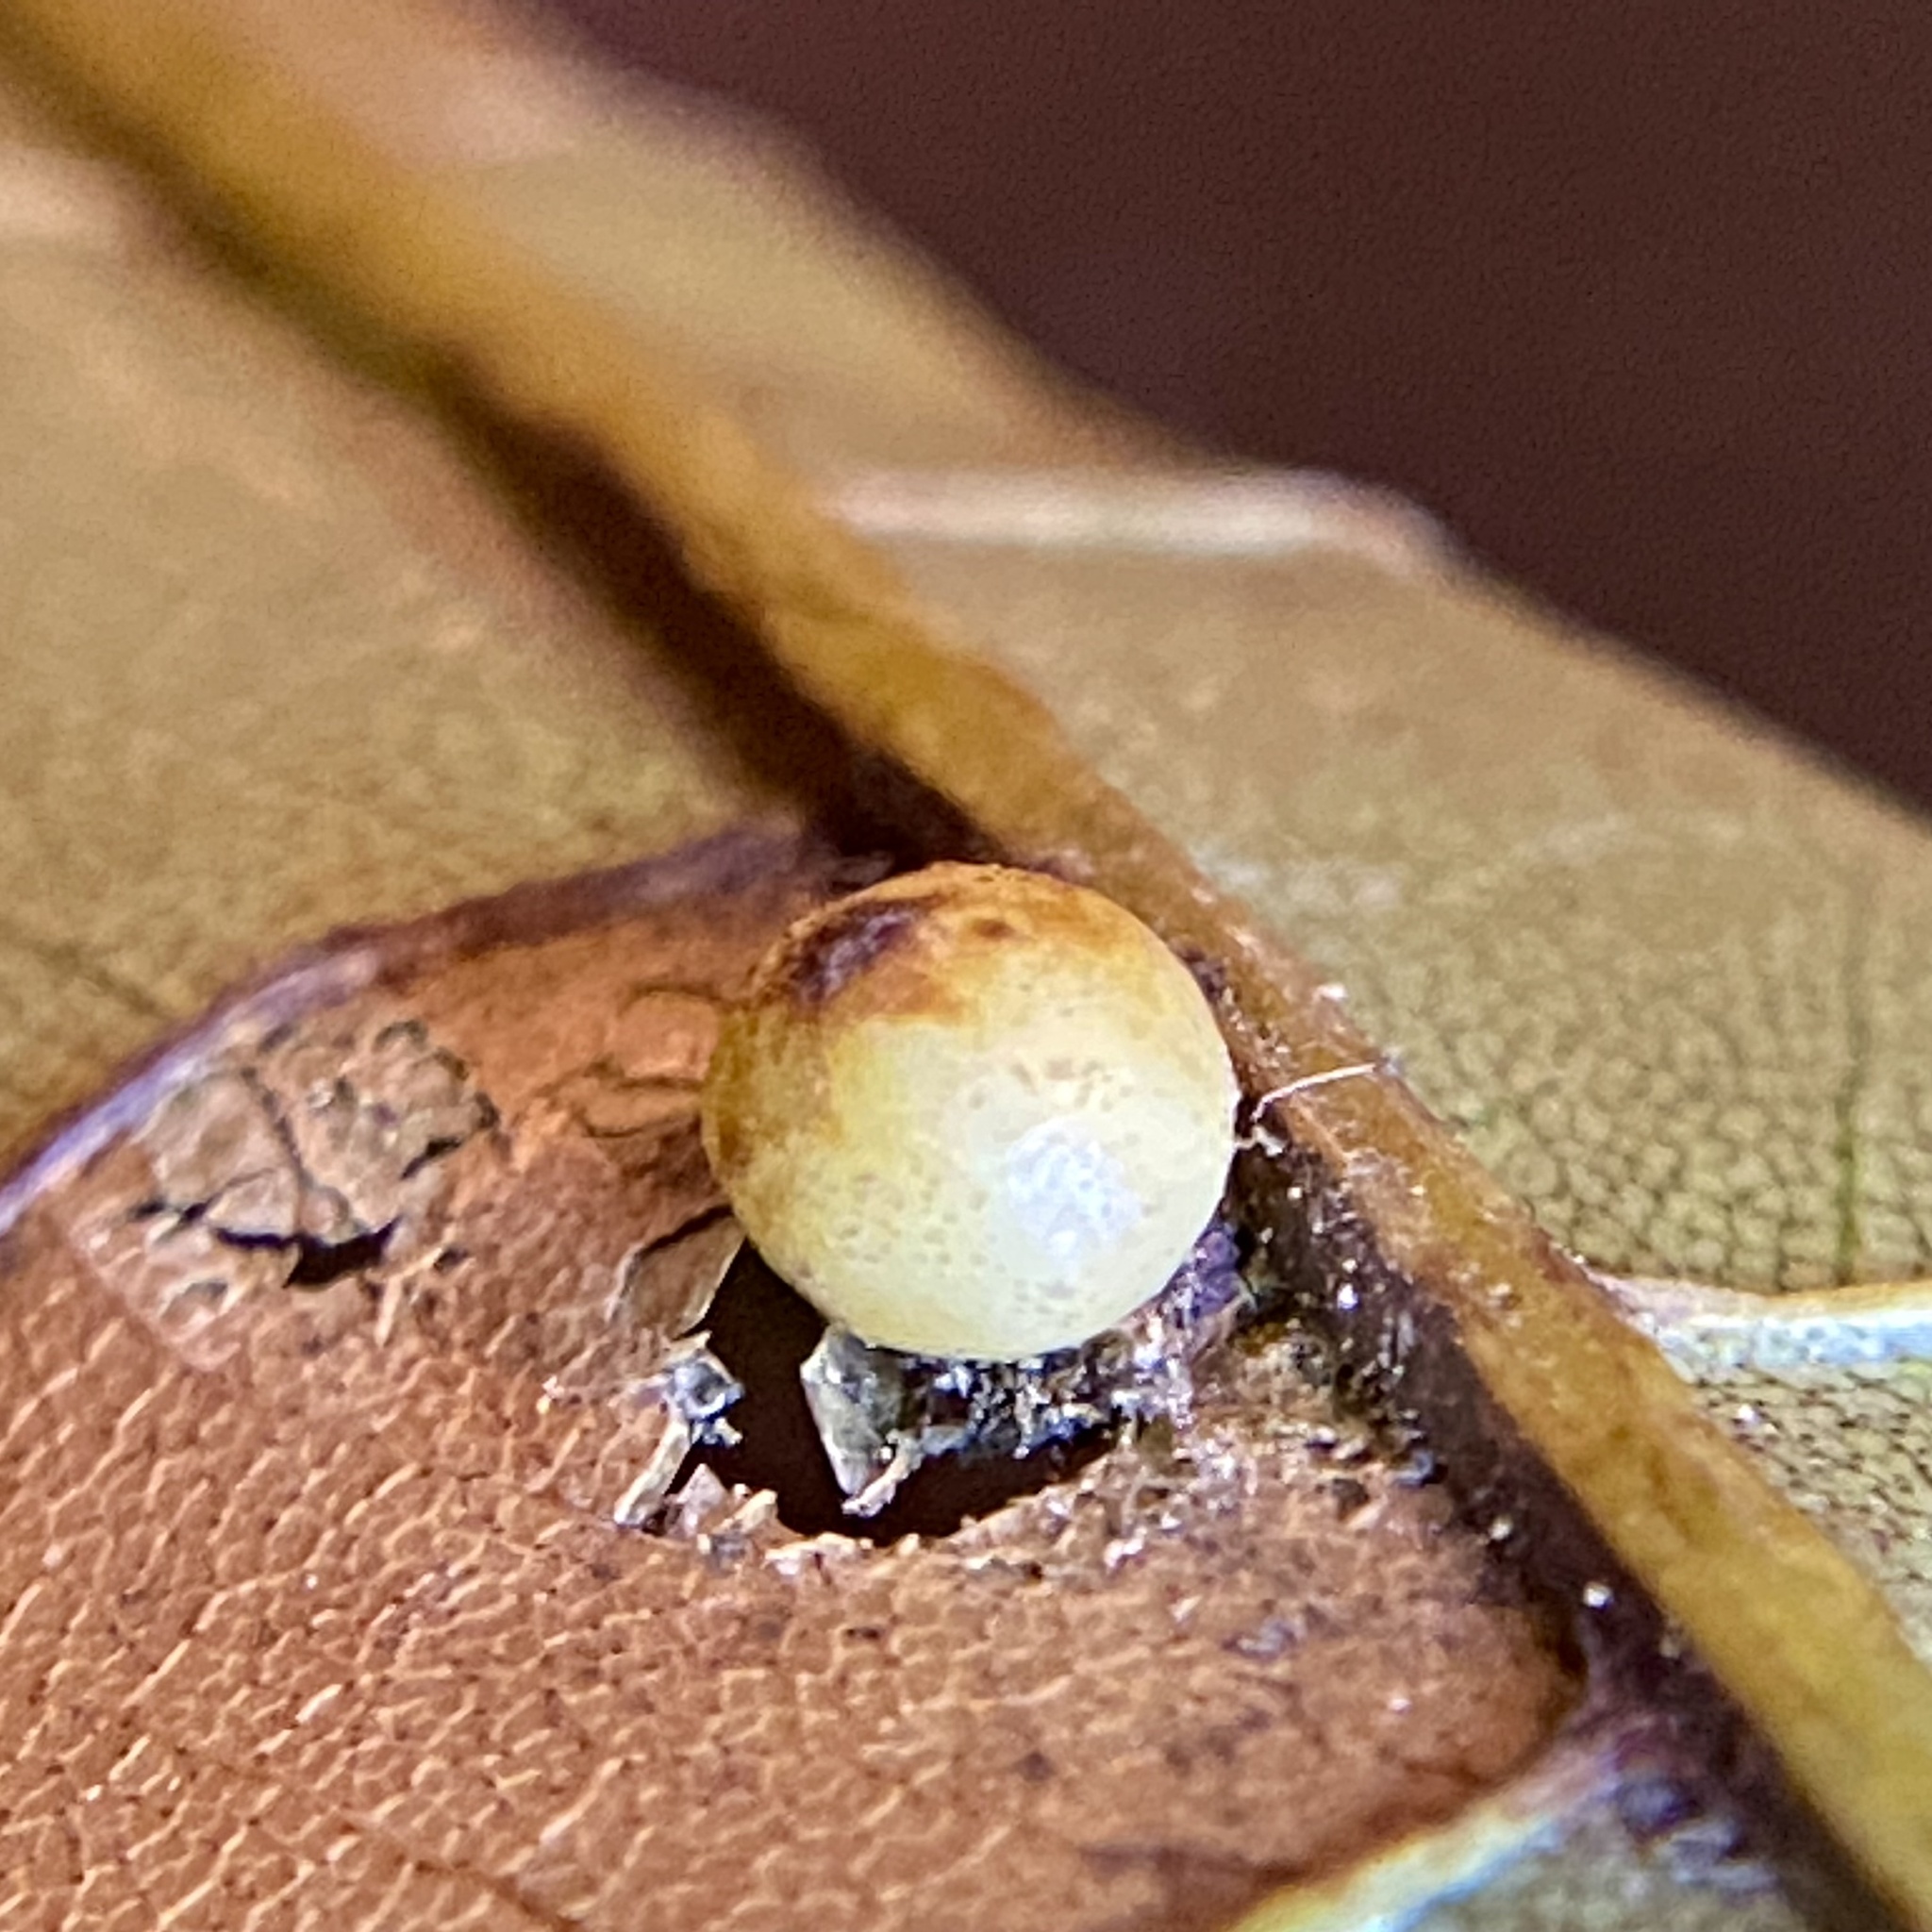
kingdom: Animalia
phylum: Arthropoda
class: Insecta
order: Diptera
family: Cecidomyiidae
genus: Caryomyia
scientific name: Caryomyia caryae
